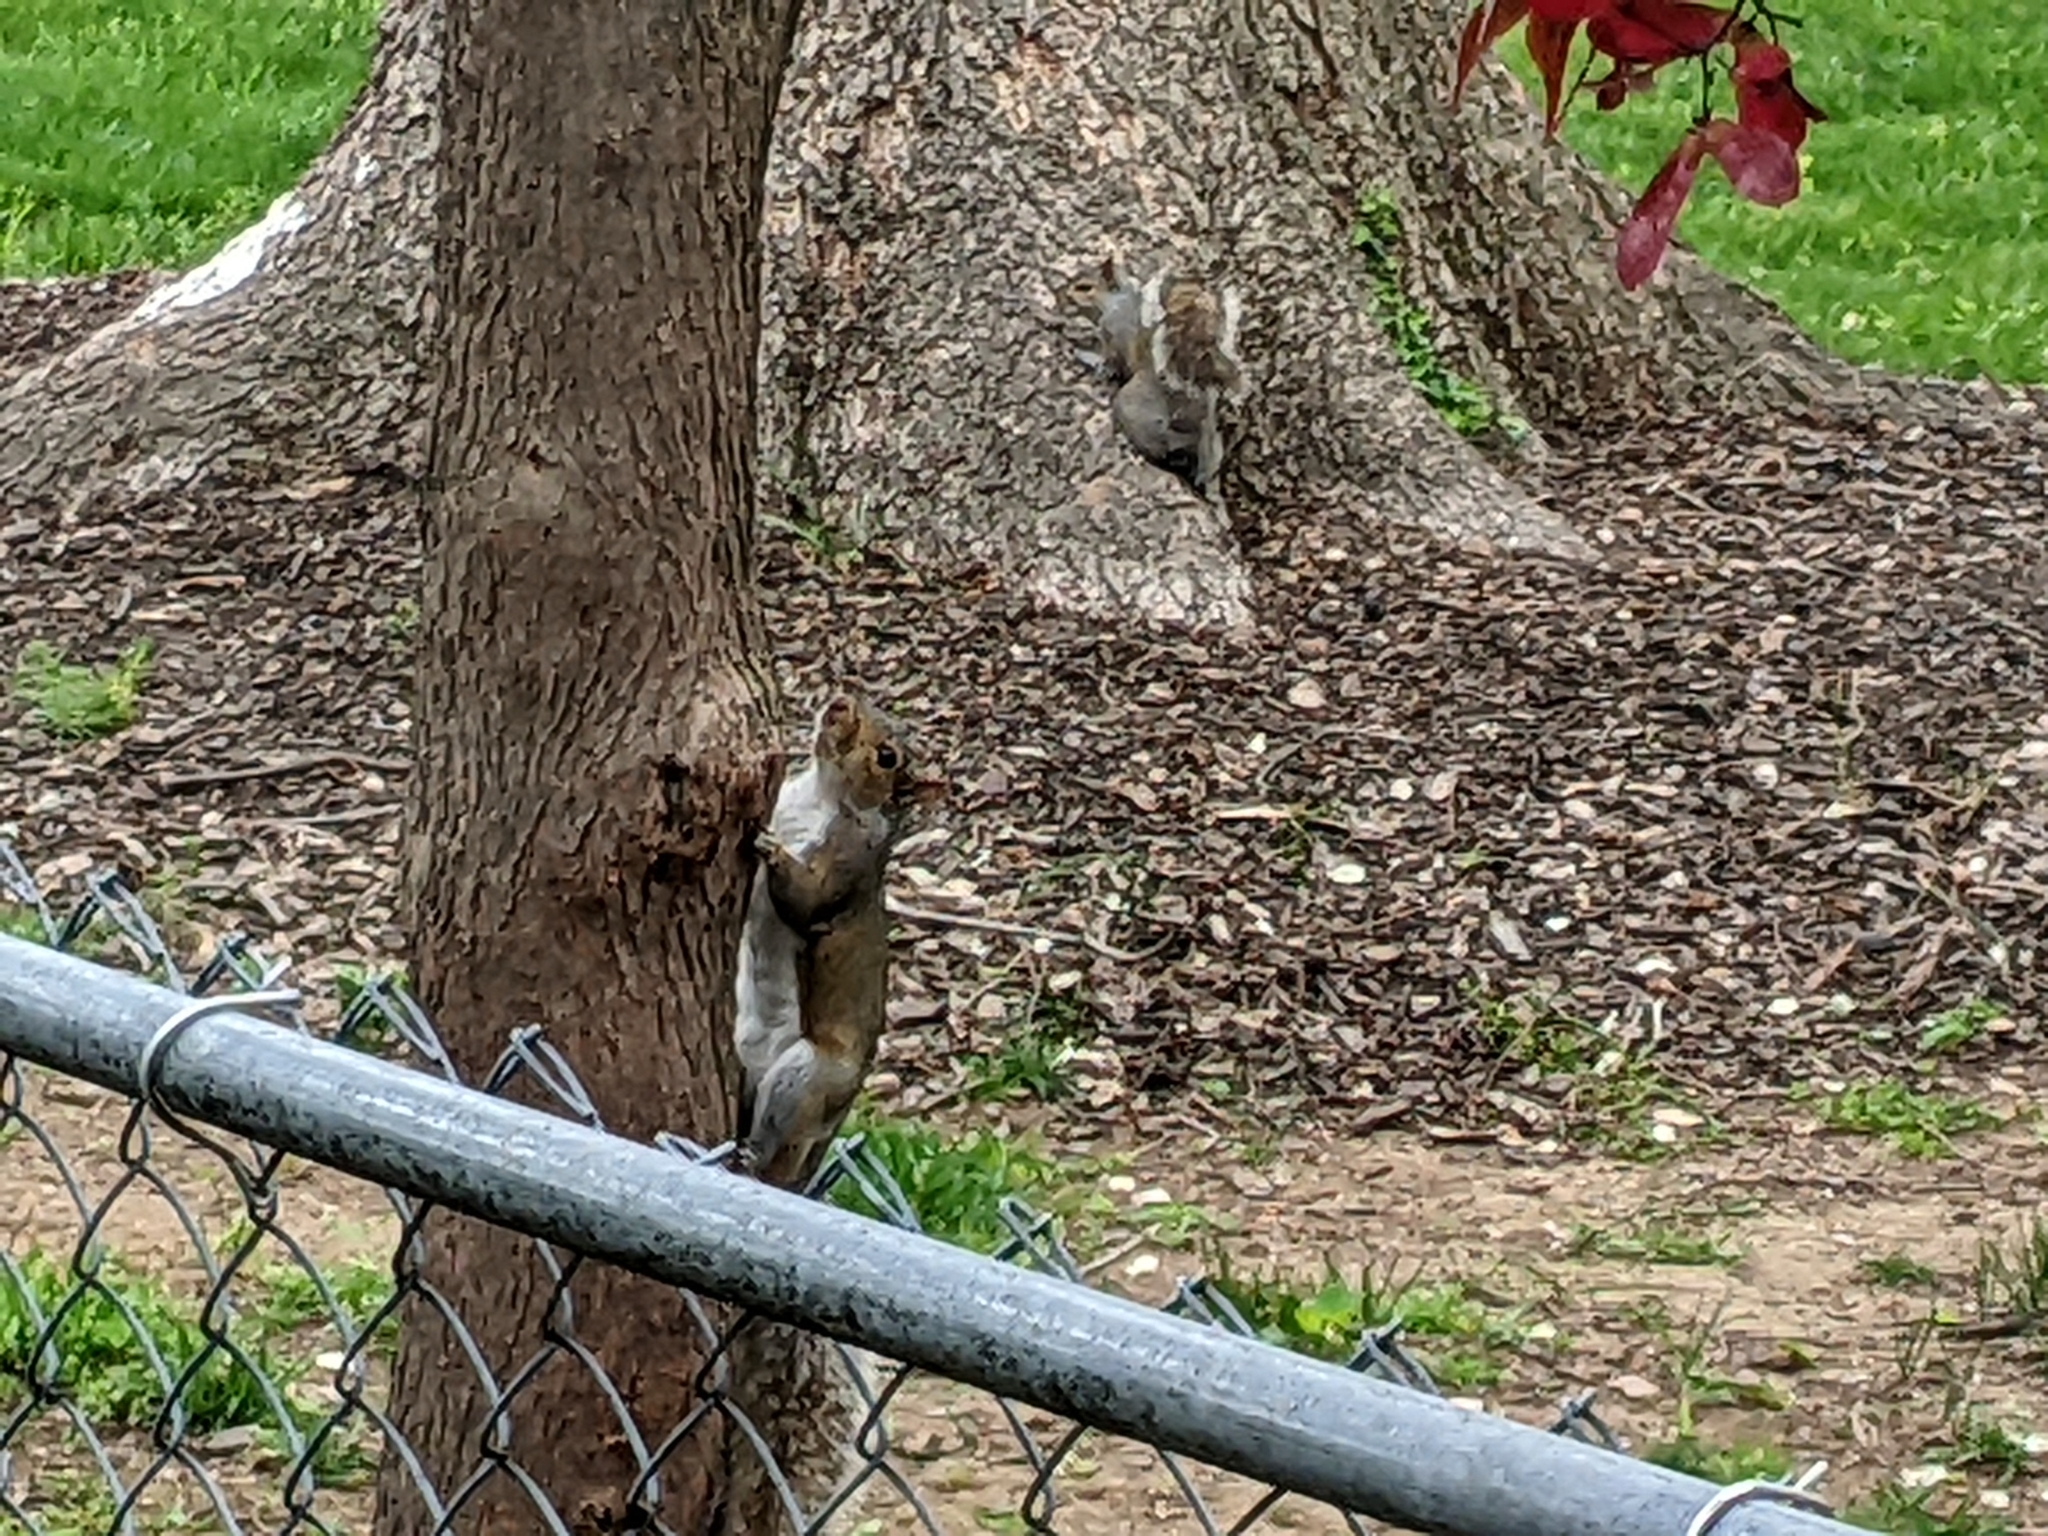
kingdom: Animalia
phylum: Chordata
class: Mammalia
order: Rodentia
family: Sciuridae
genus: Sciurus
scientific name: Sciurus carolinensis
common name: Eastern gray squirrel
